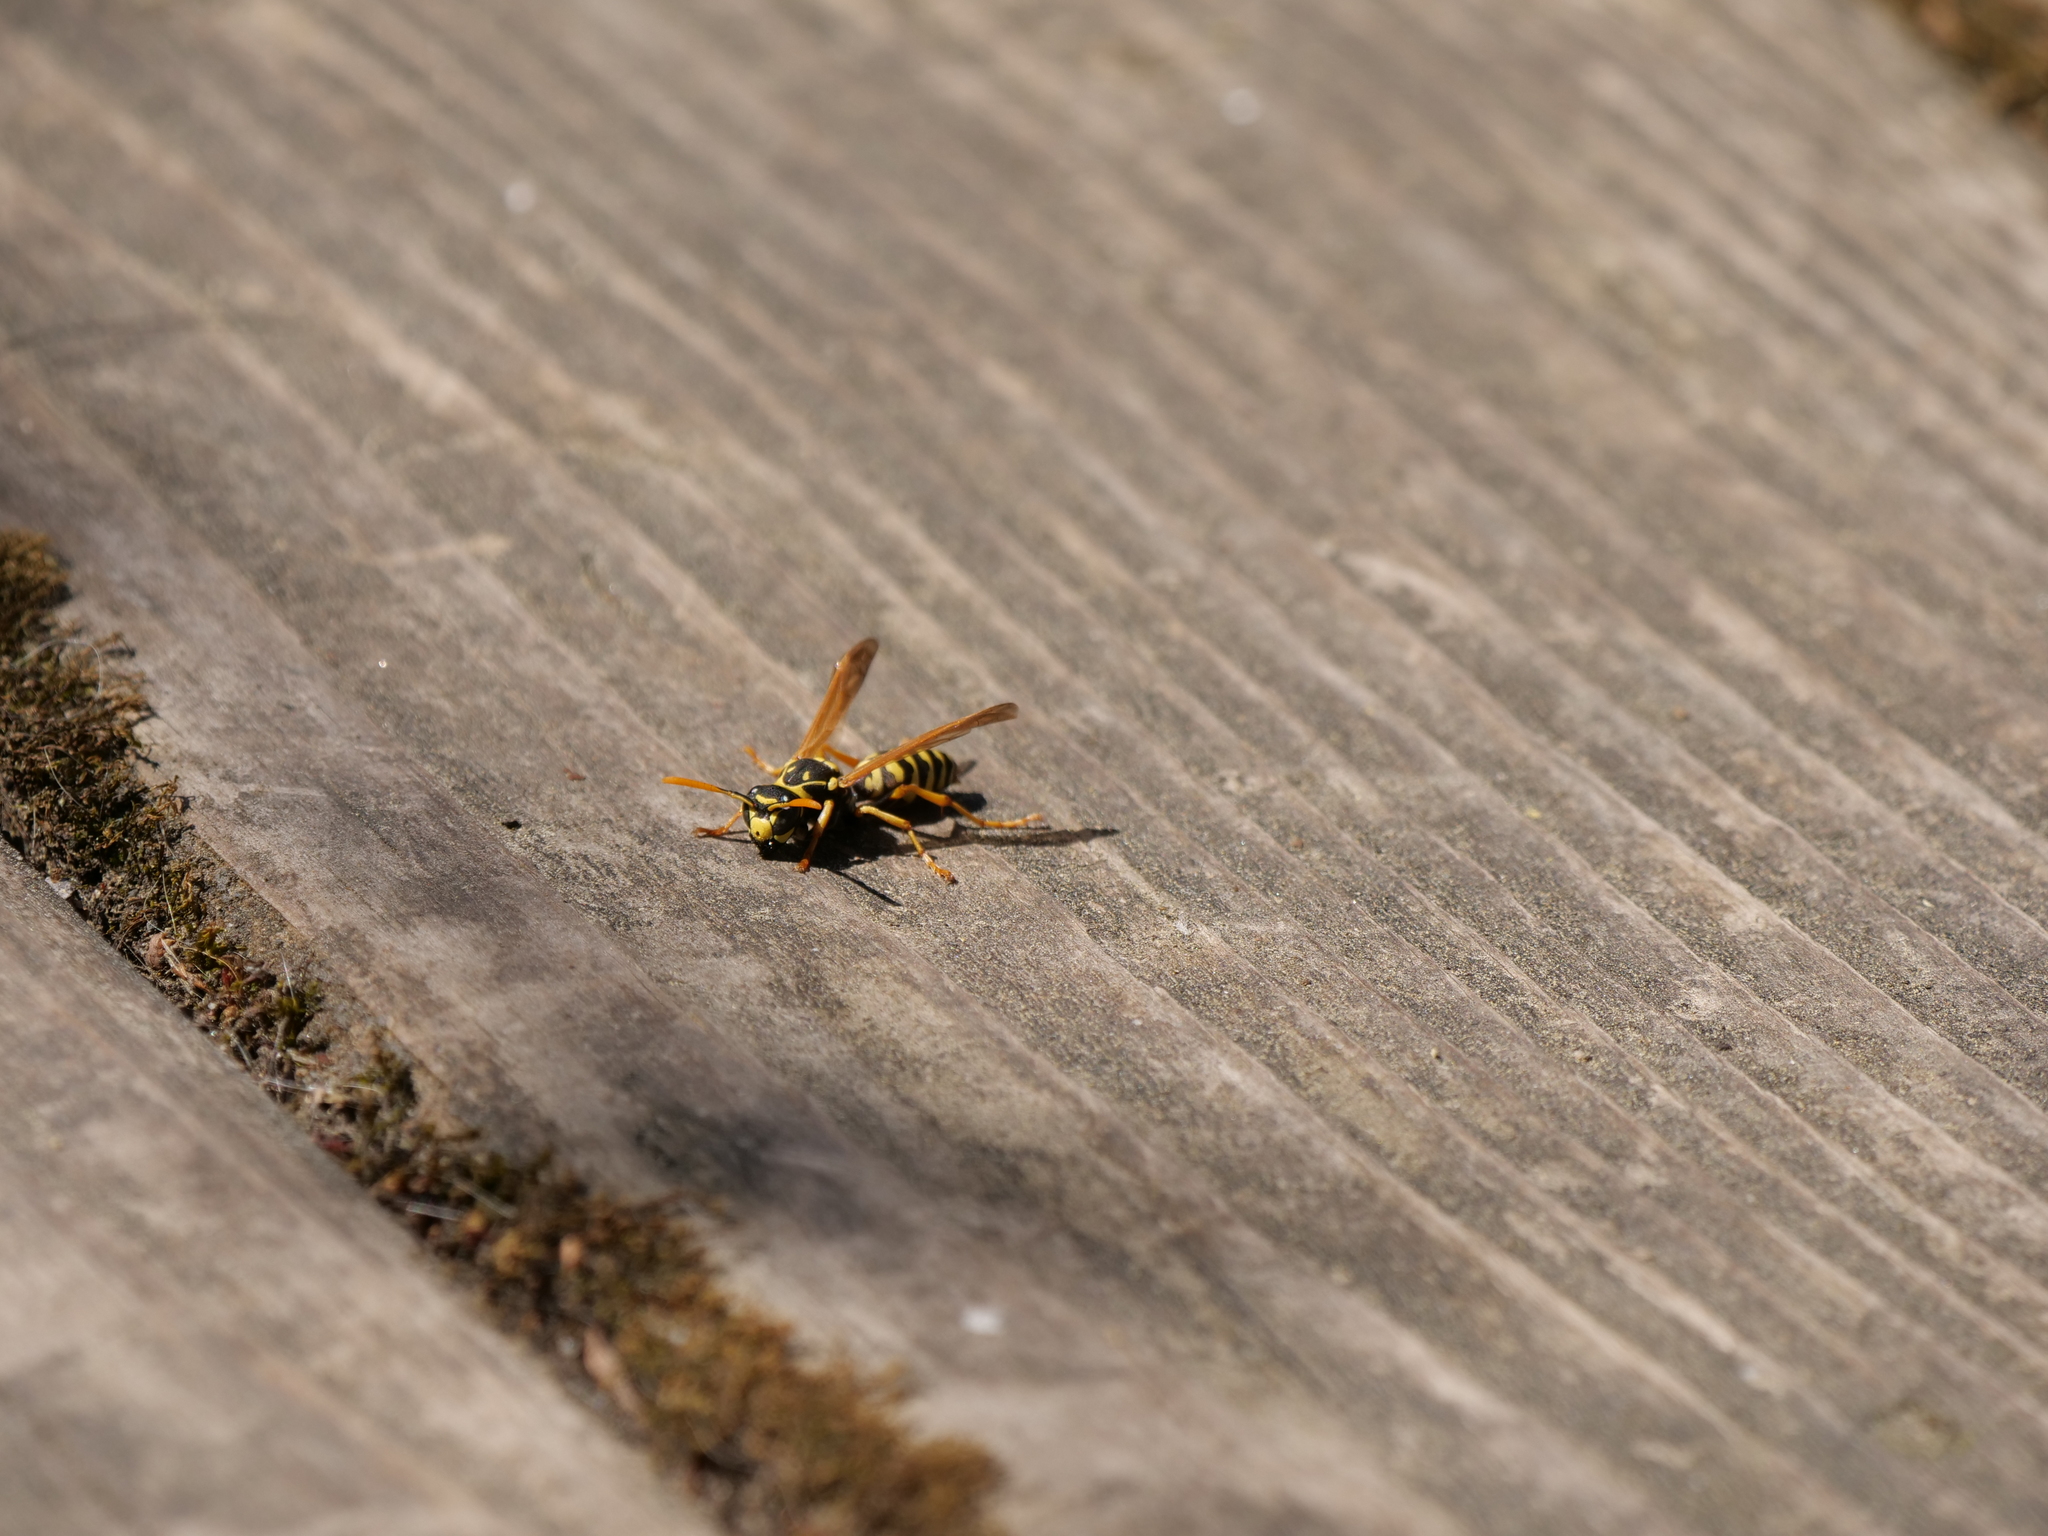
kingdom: Animalia
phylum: Arthropoda
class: Insecta
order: Hymenoptera
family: Eumenidae
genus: Polistes
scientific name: Polistes dominula
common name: Paper wasp
